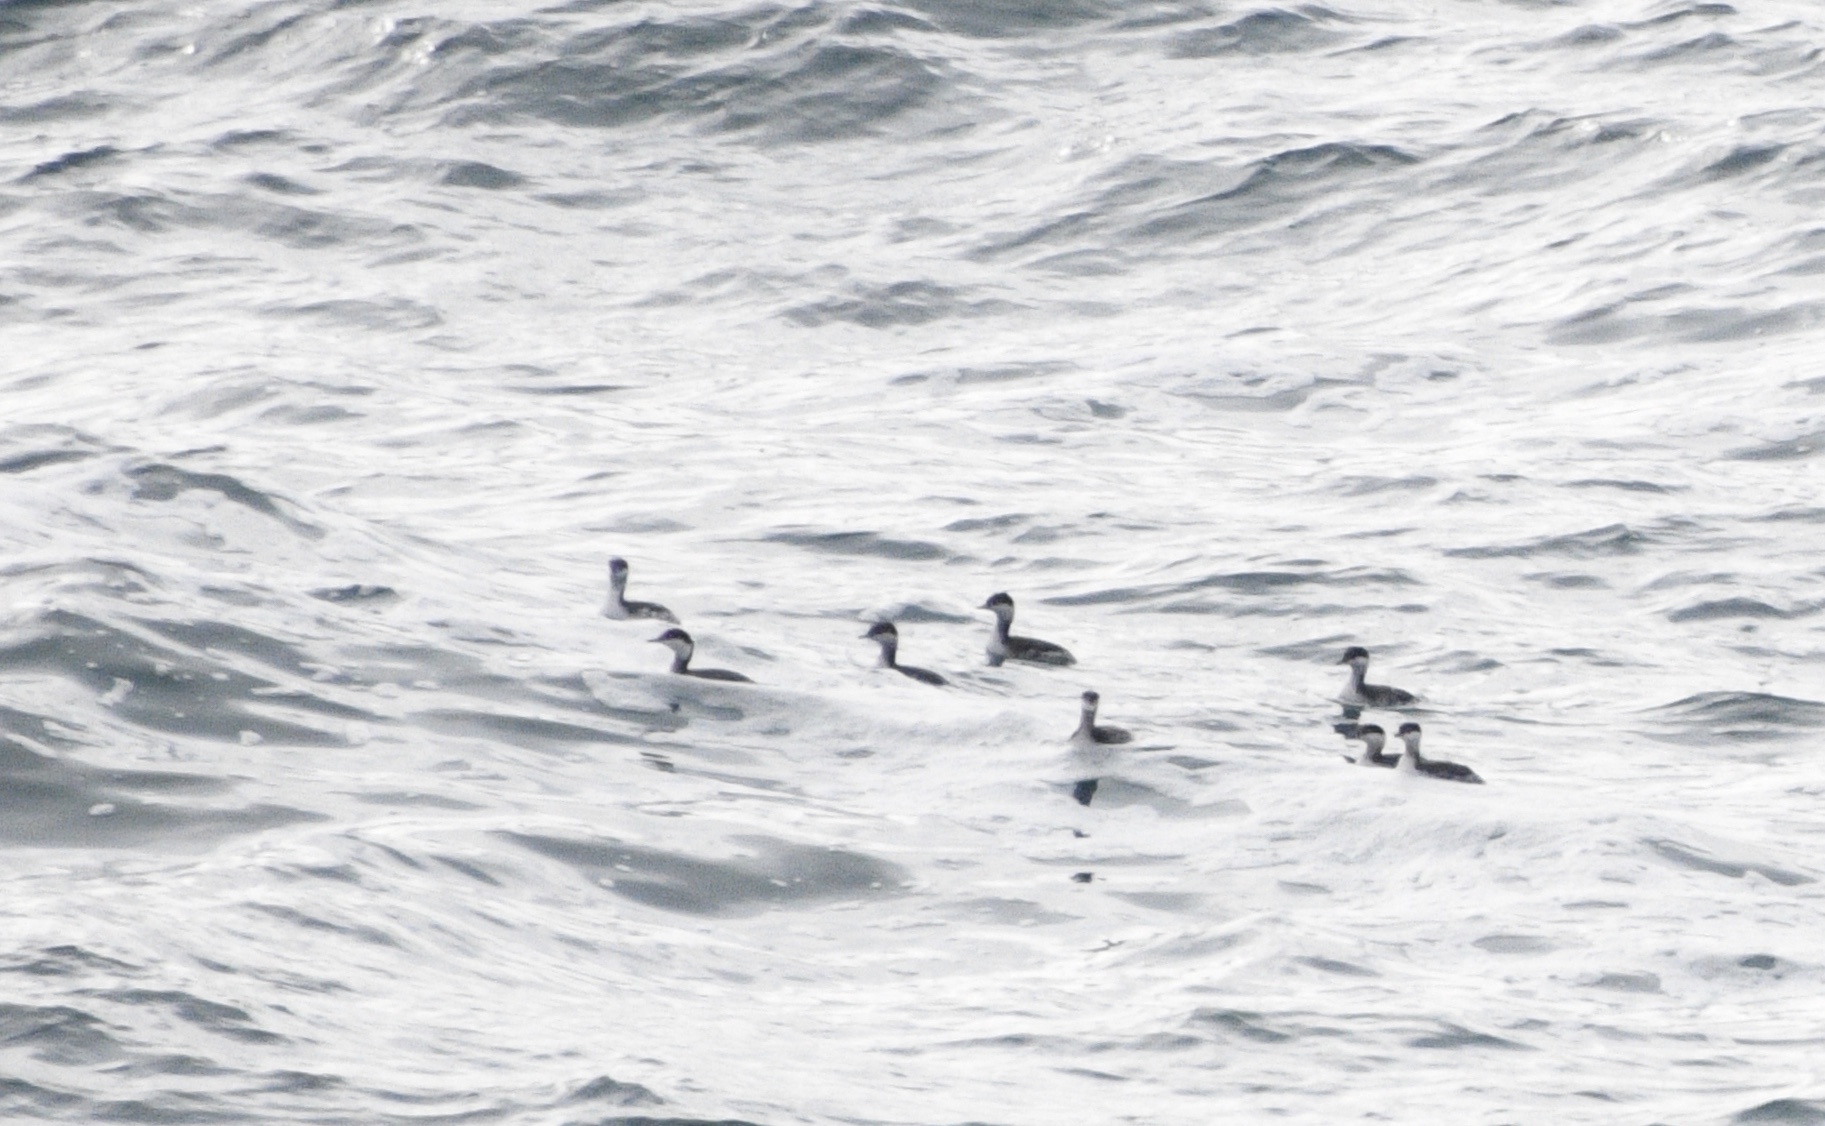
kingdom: Animalia
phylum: Chordata
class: Aves
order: Podicipediformes
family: Podicipedidae
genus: Podiceps
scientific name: Podiceps auritus
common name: Horned grebe
